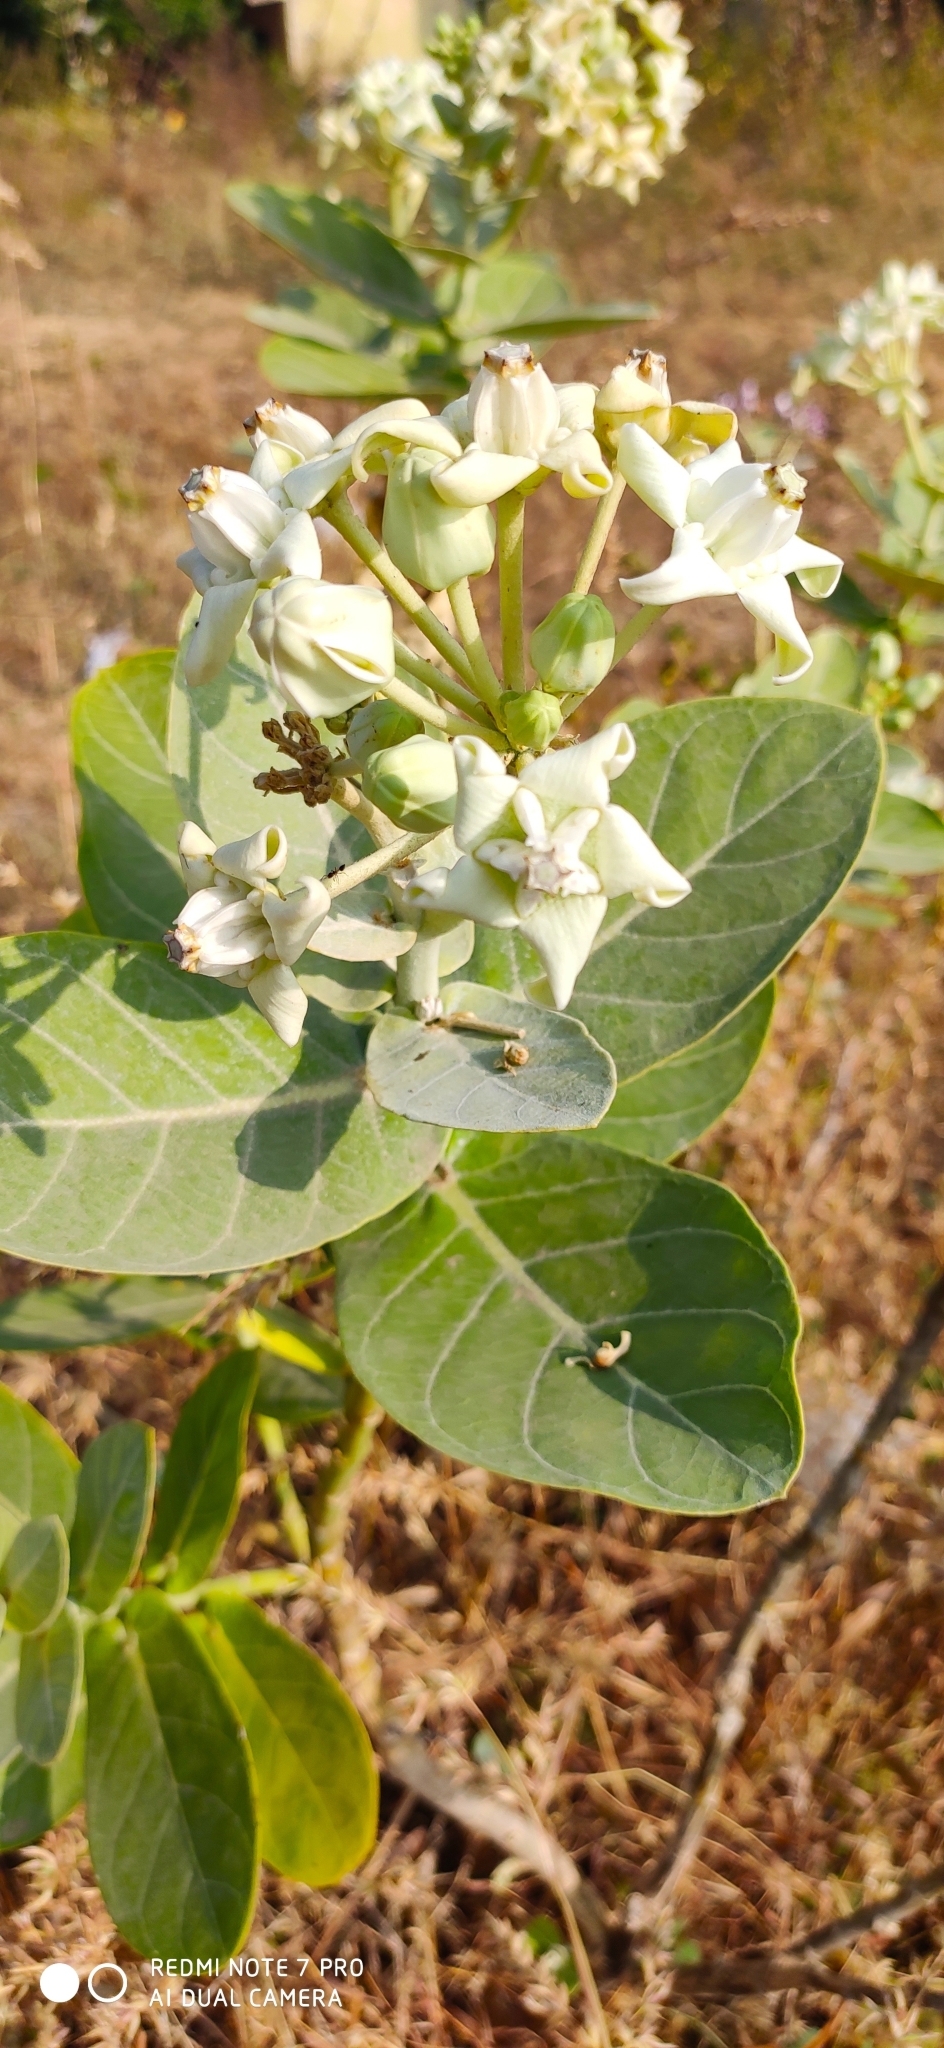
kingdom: Plantae
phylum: Tracheophyta
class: Magnoliopsida
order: Gentianales
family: Apocynaceae
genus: Calotropis
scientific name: Calotropis gigantea
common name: Crown flower
